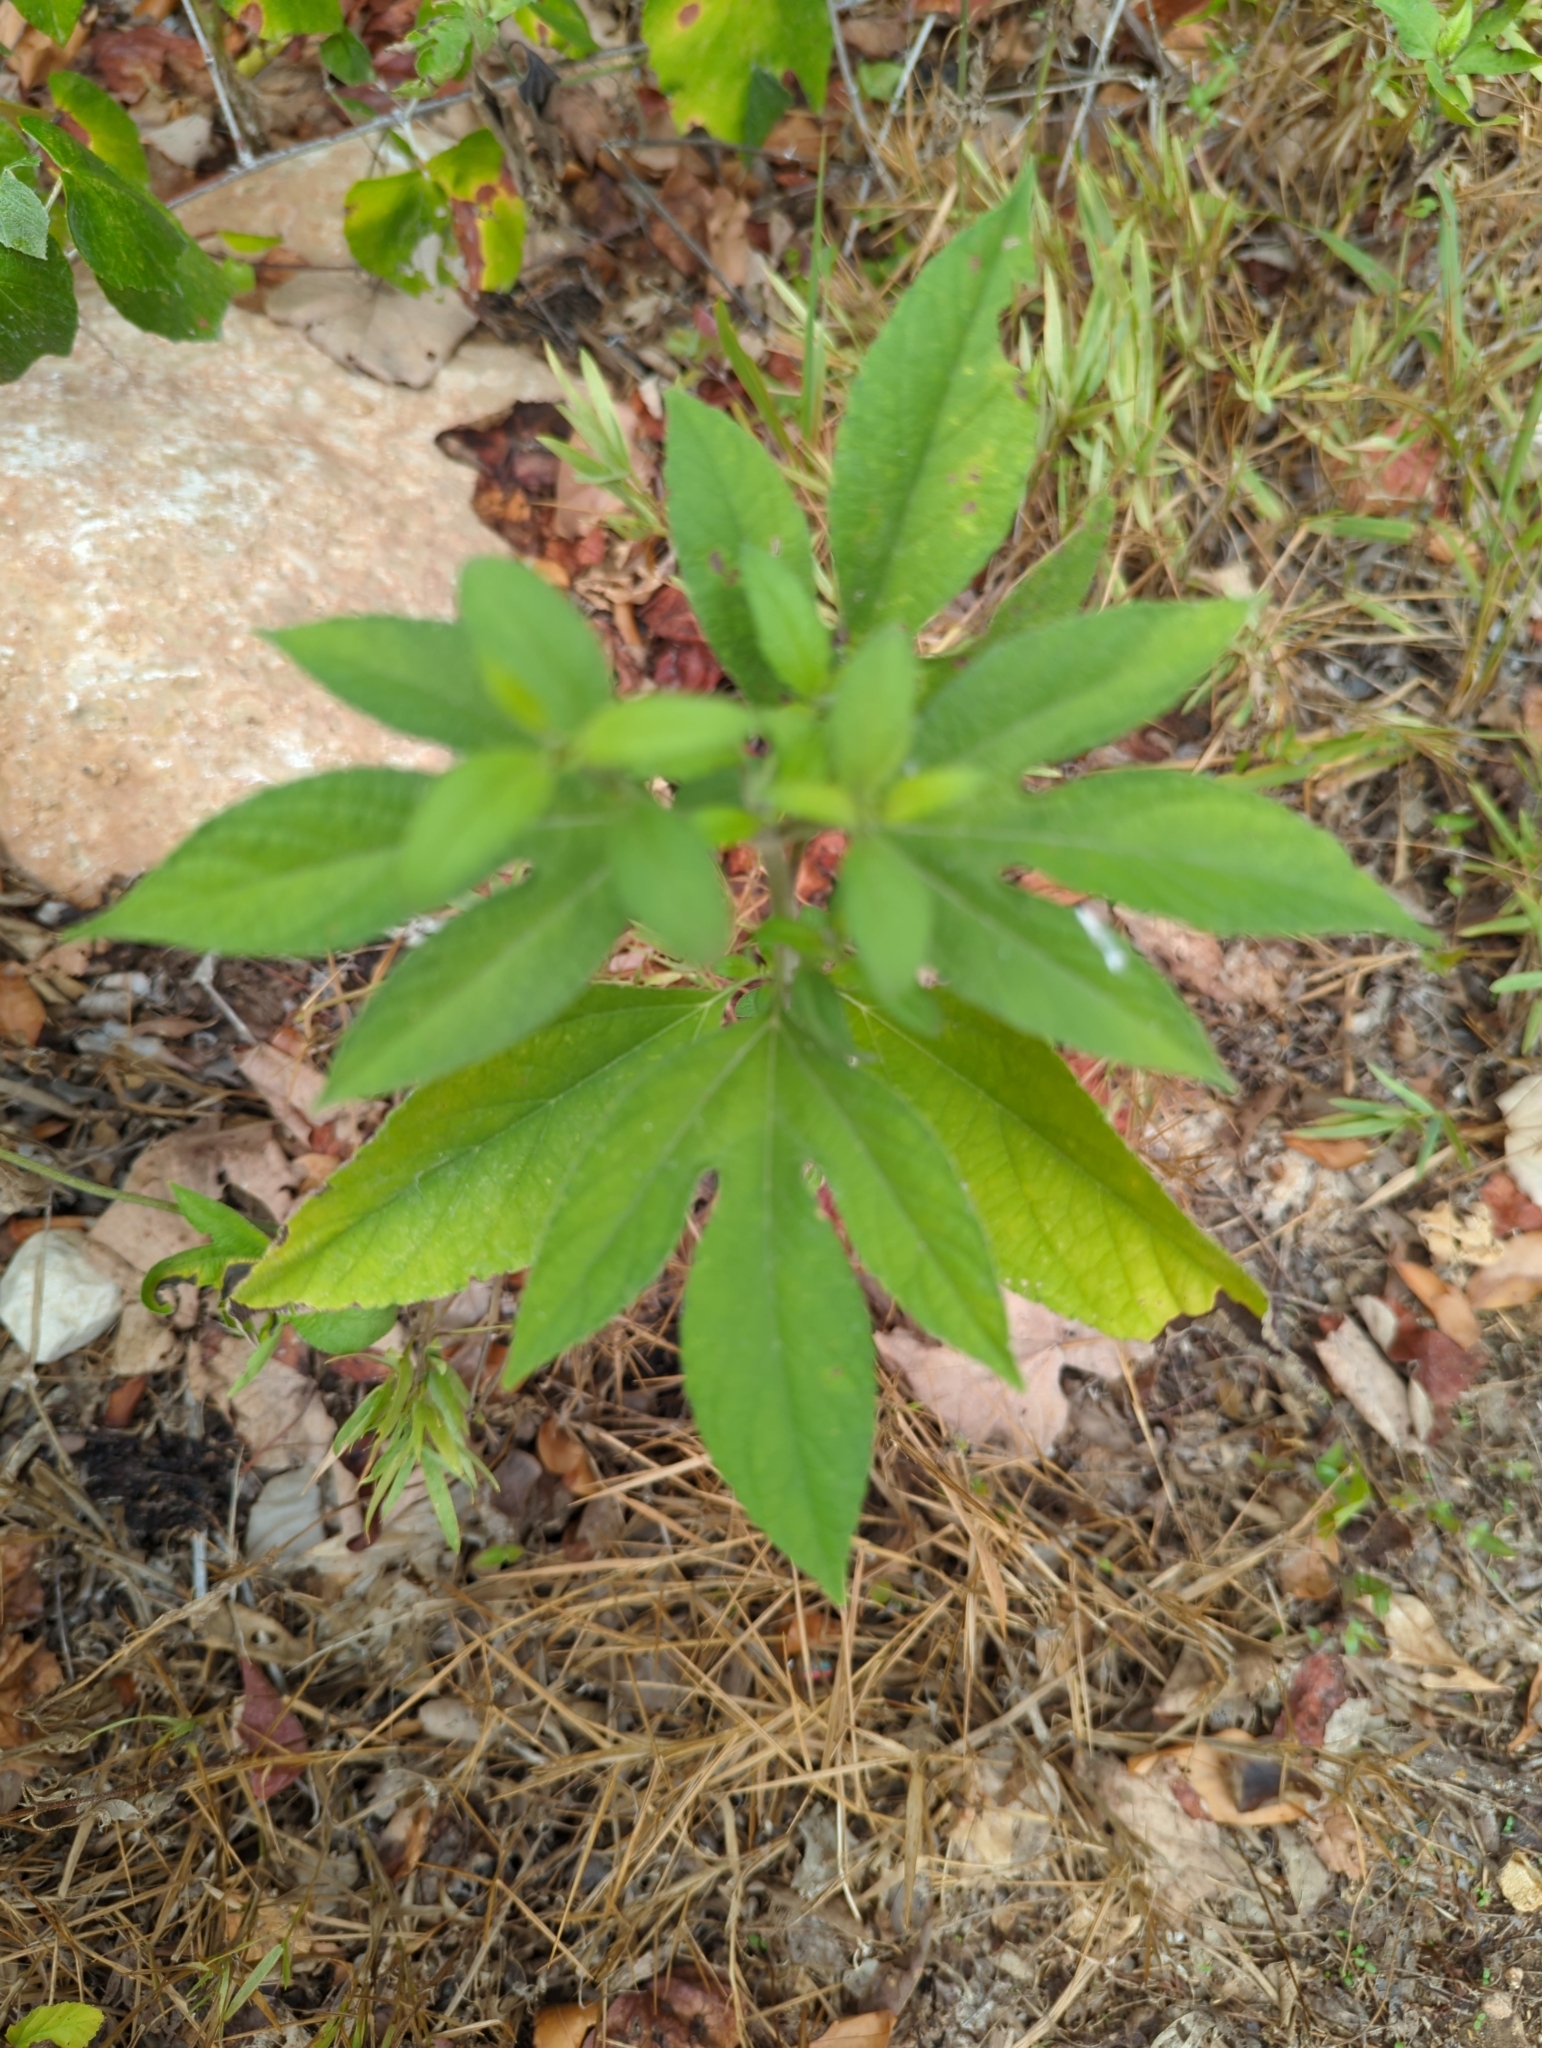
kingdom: Plantae
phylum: Tracheophyta
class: Magnoliopsida
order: Asterales
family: Asteraceae
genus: Ambrosia
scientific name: Ambrosia trifida
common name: Giant ragweed
